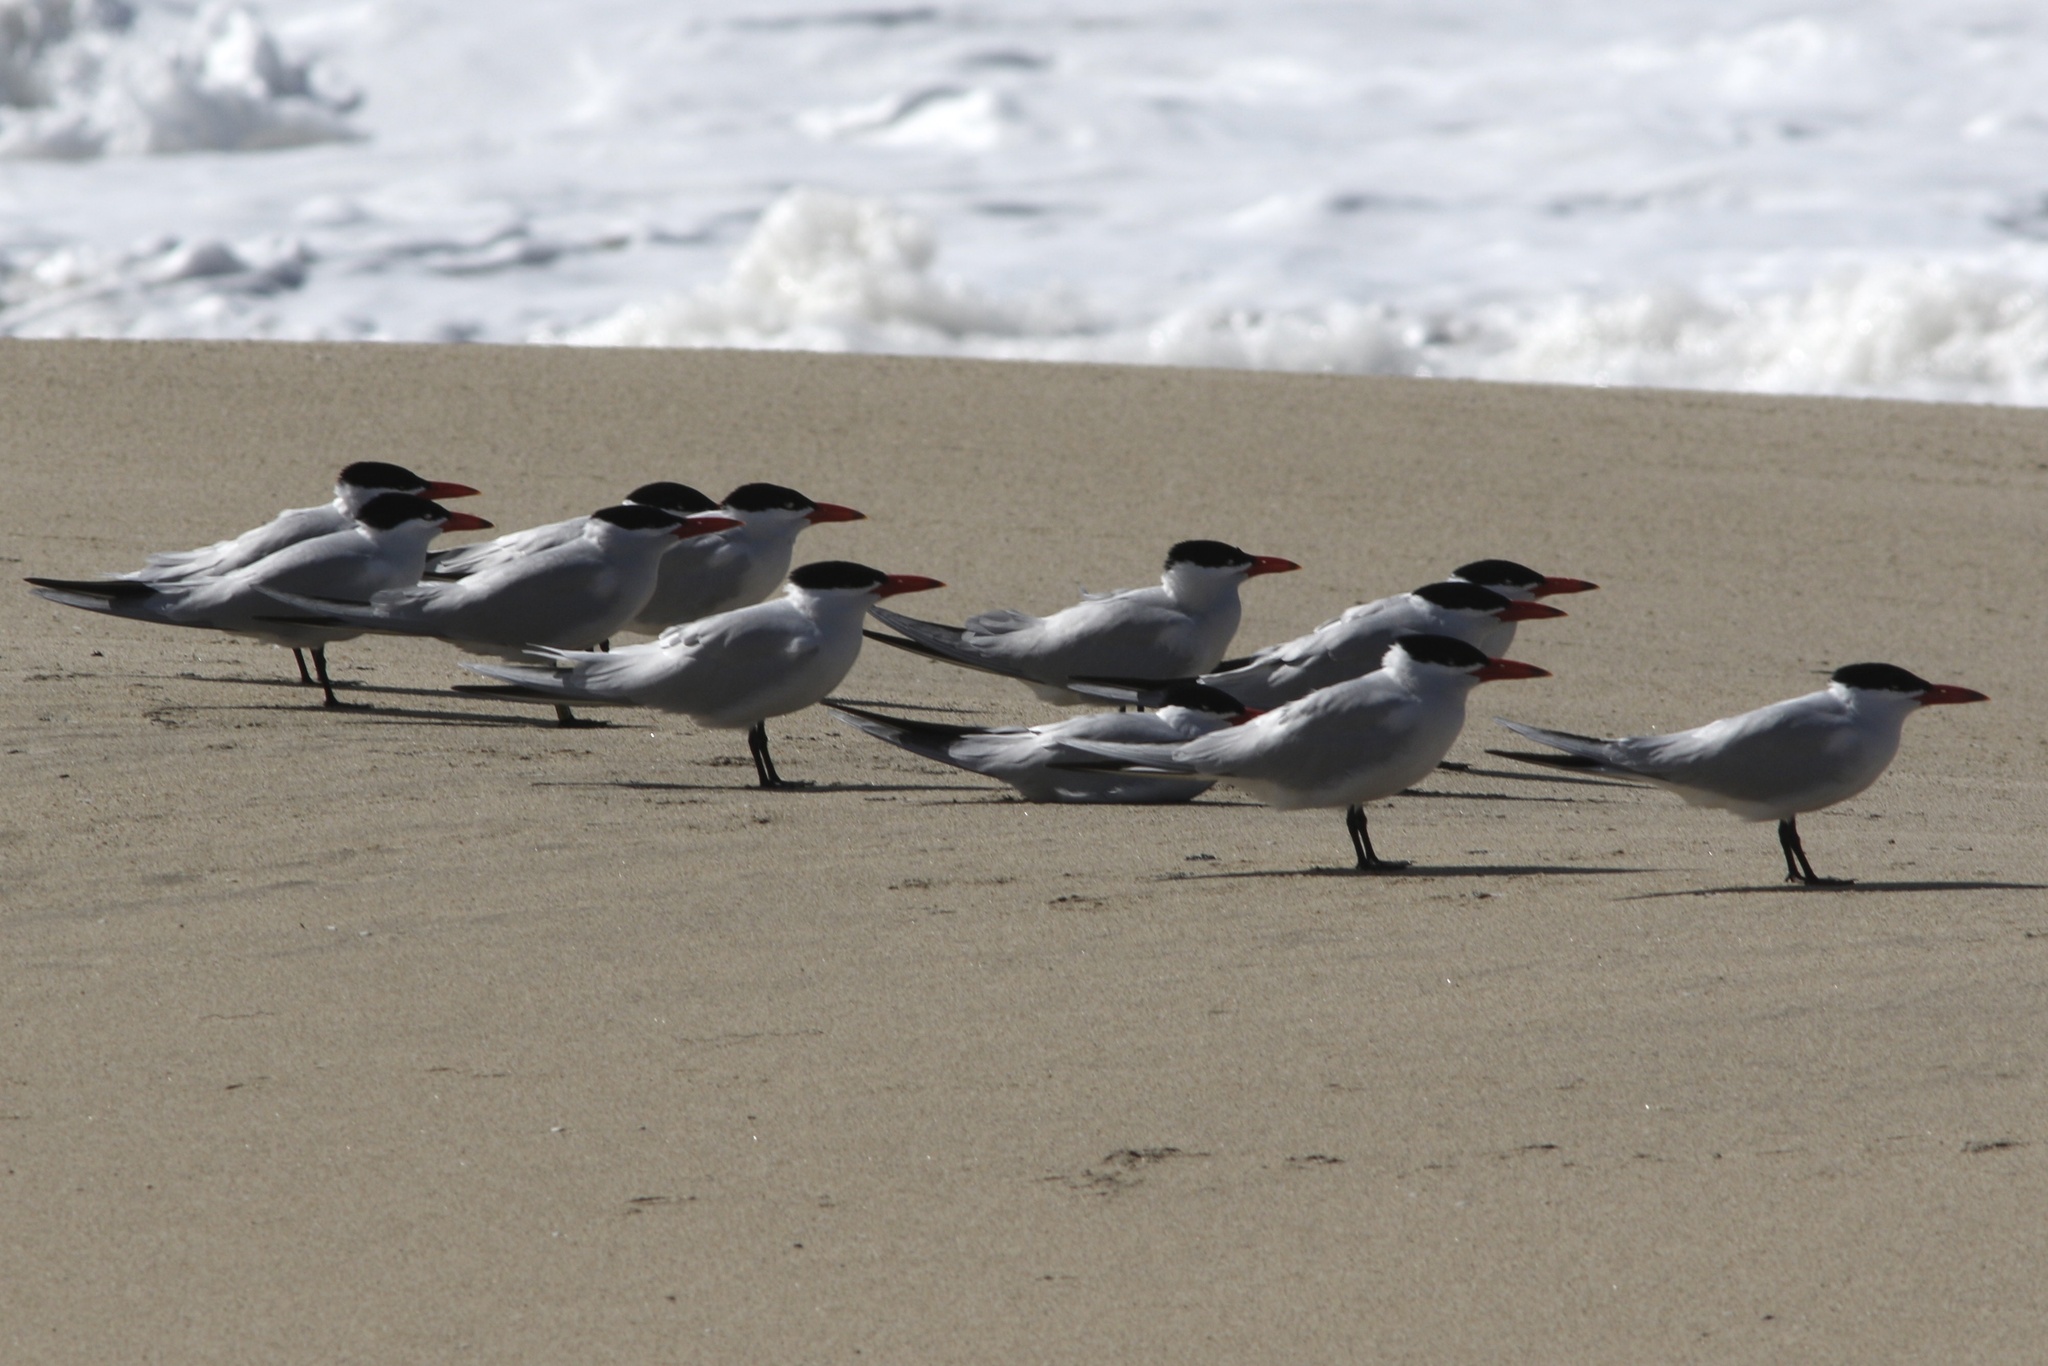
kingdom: Animalia
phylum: Chordata
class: Aves
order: Charadriiformes
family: Laridae
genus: Hydroprogne
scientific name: Hydroprogne caspia
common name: Caspian tern
